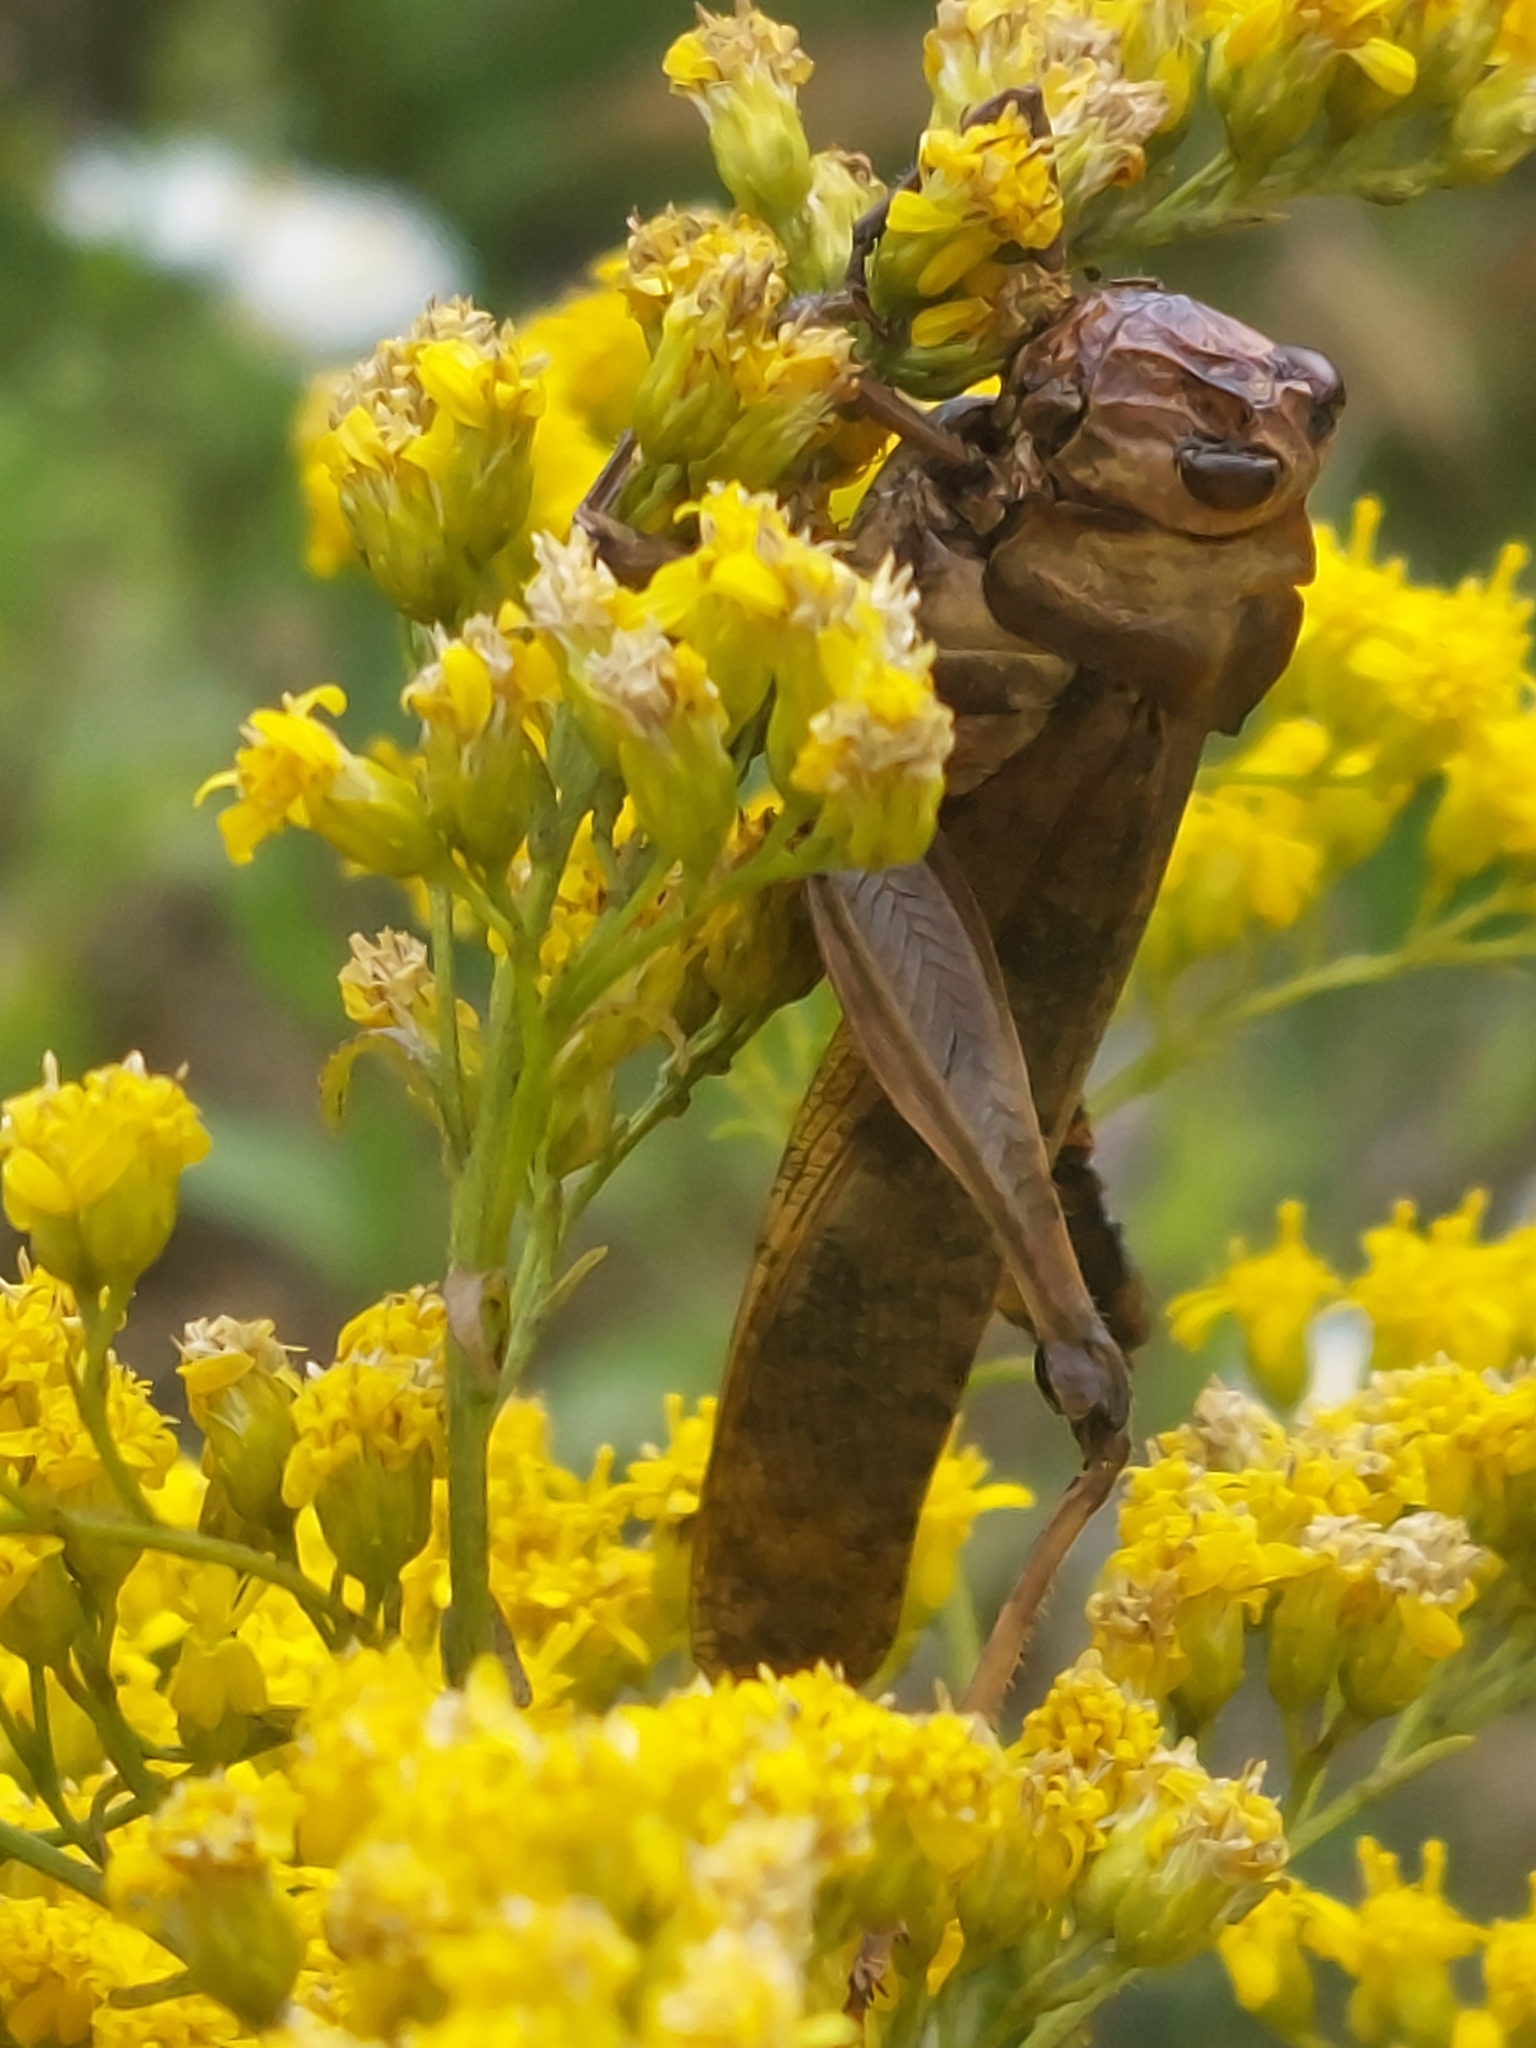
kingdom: Animalia
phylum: Arthropoda
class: Insecta
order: Orthoptera
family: Acrididae
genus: Dissosteira
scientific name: Dissosteira carolina
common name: Carolina grasshopper
